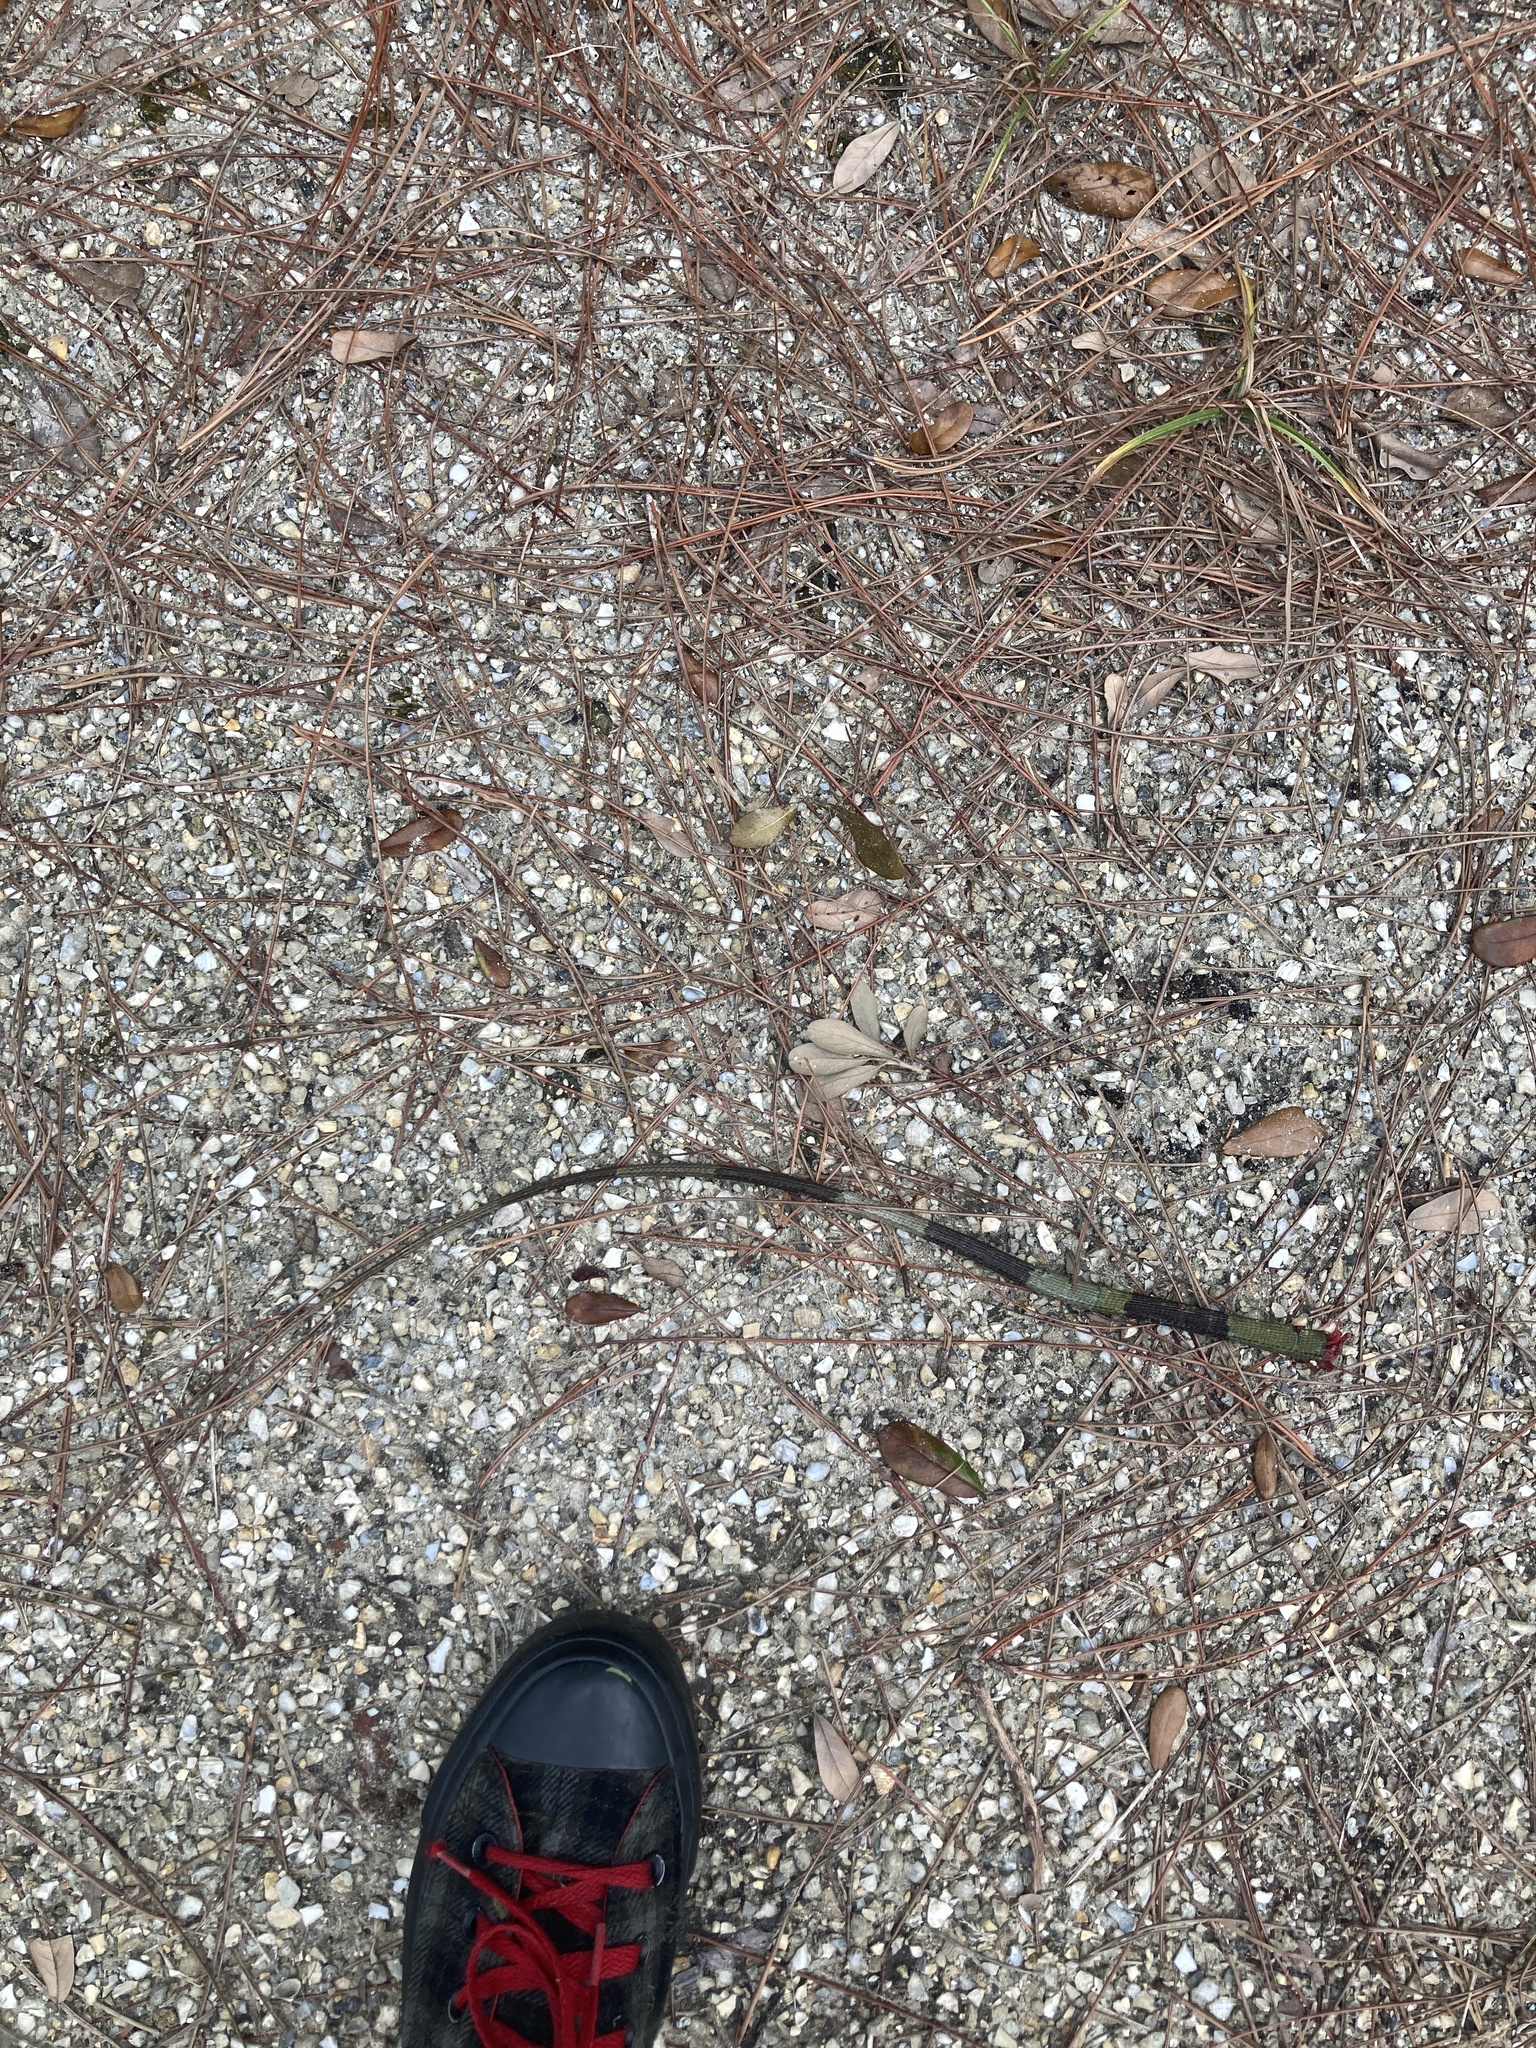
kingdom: Animalia
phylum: Chordata
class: Squamata
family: Iguanidae
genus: Iguana
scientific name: Iguana iguana
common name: Green iguana
